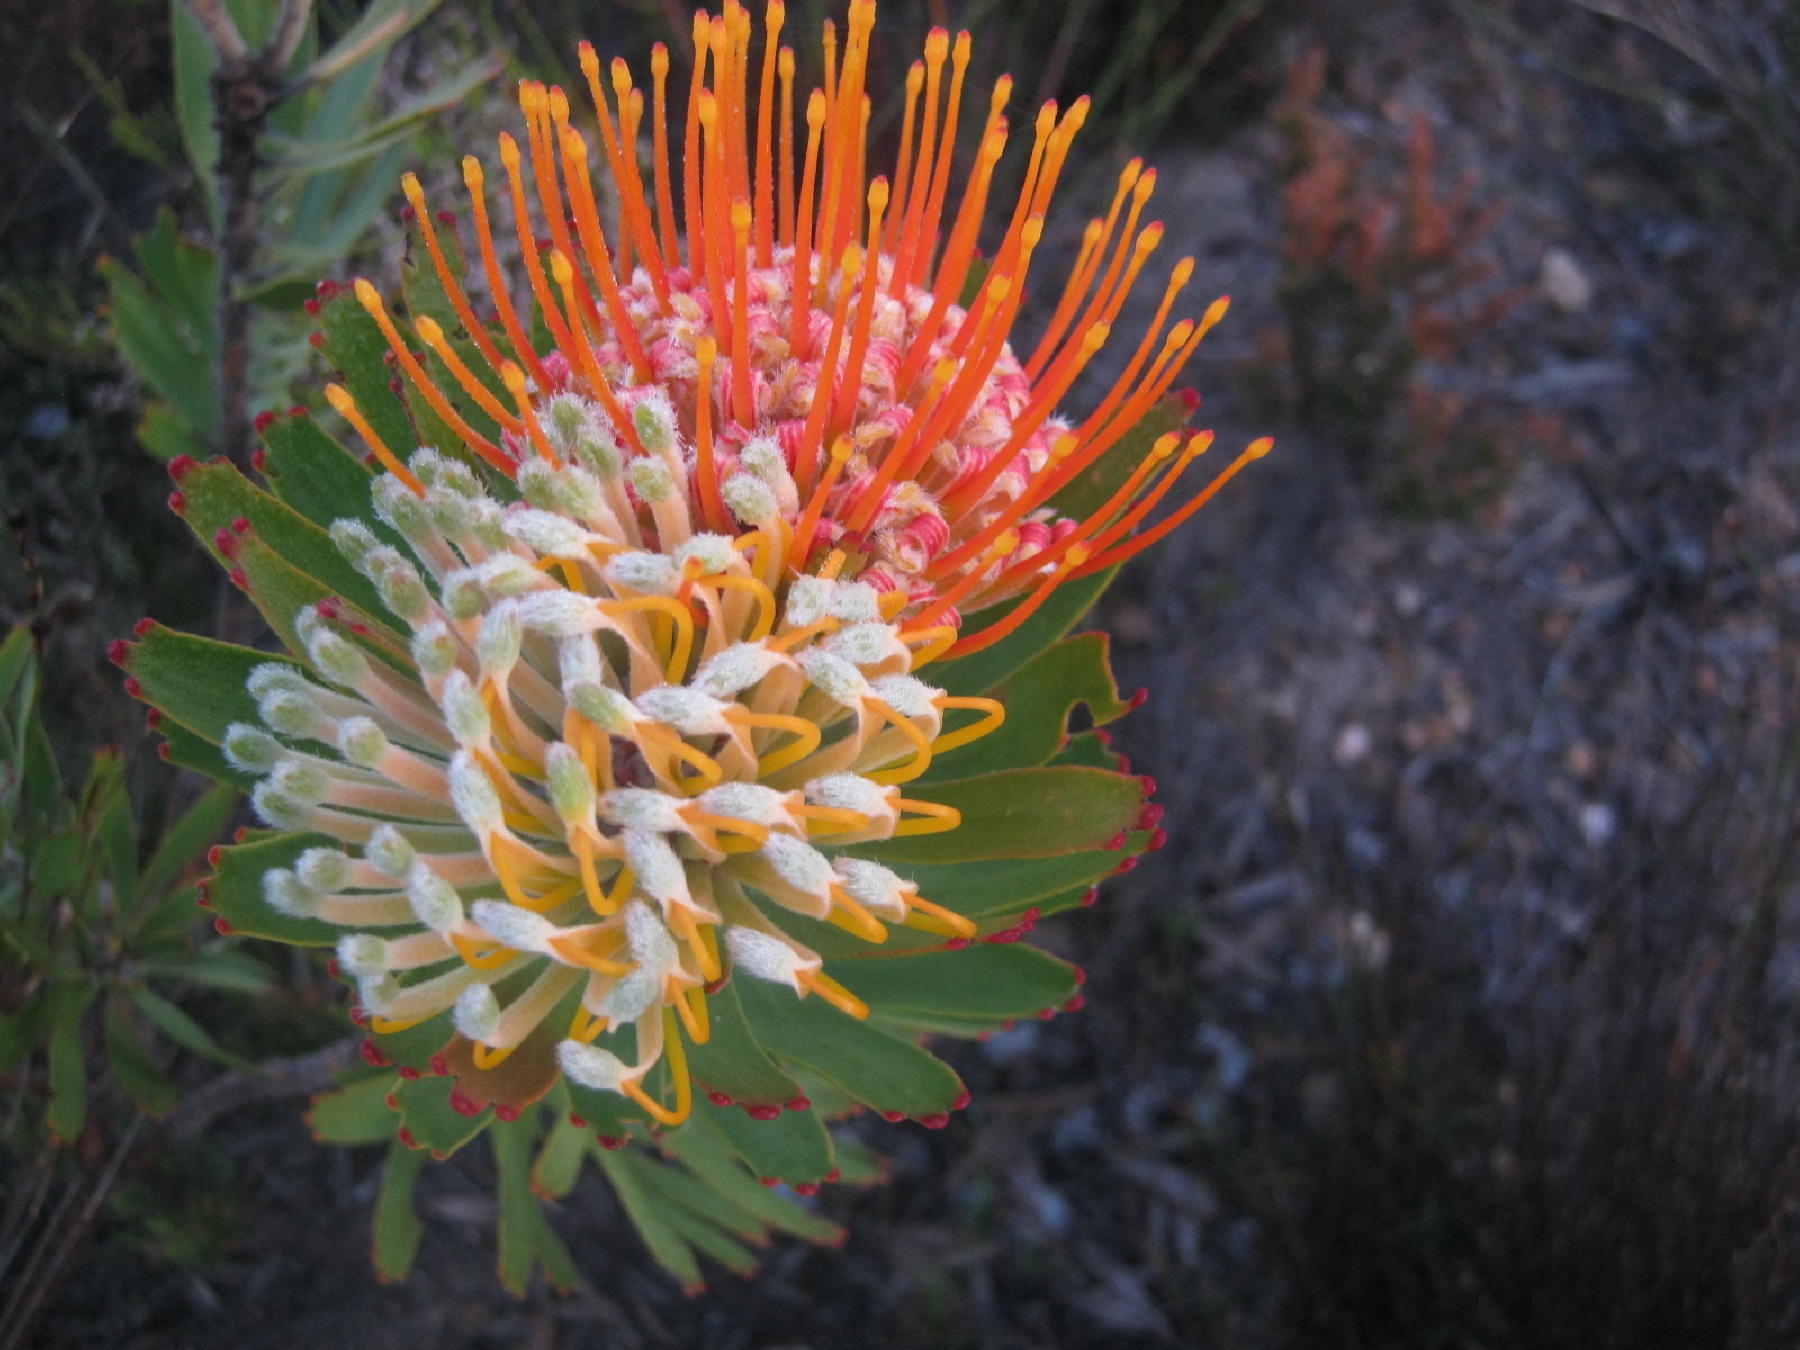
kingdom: Plantae
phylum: Tracheophyta
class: Magnoliopsida
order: Proteales
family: Proteaceae
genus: Leucospermum
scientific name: Leucospermum erubescens
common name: Oudtshoorn pincushion
